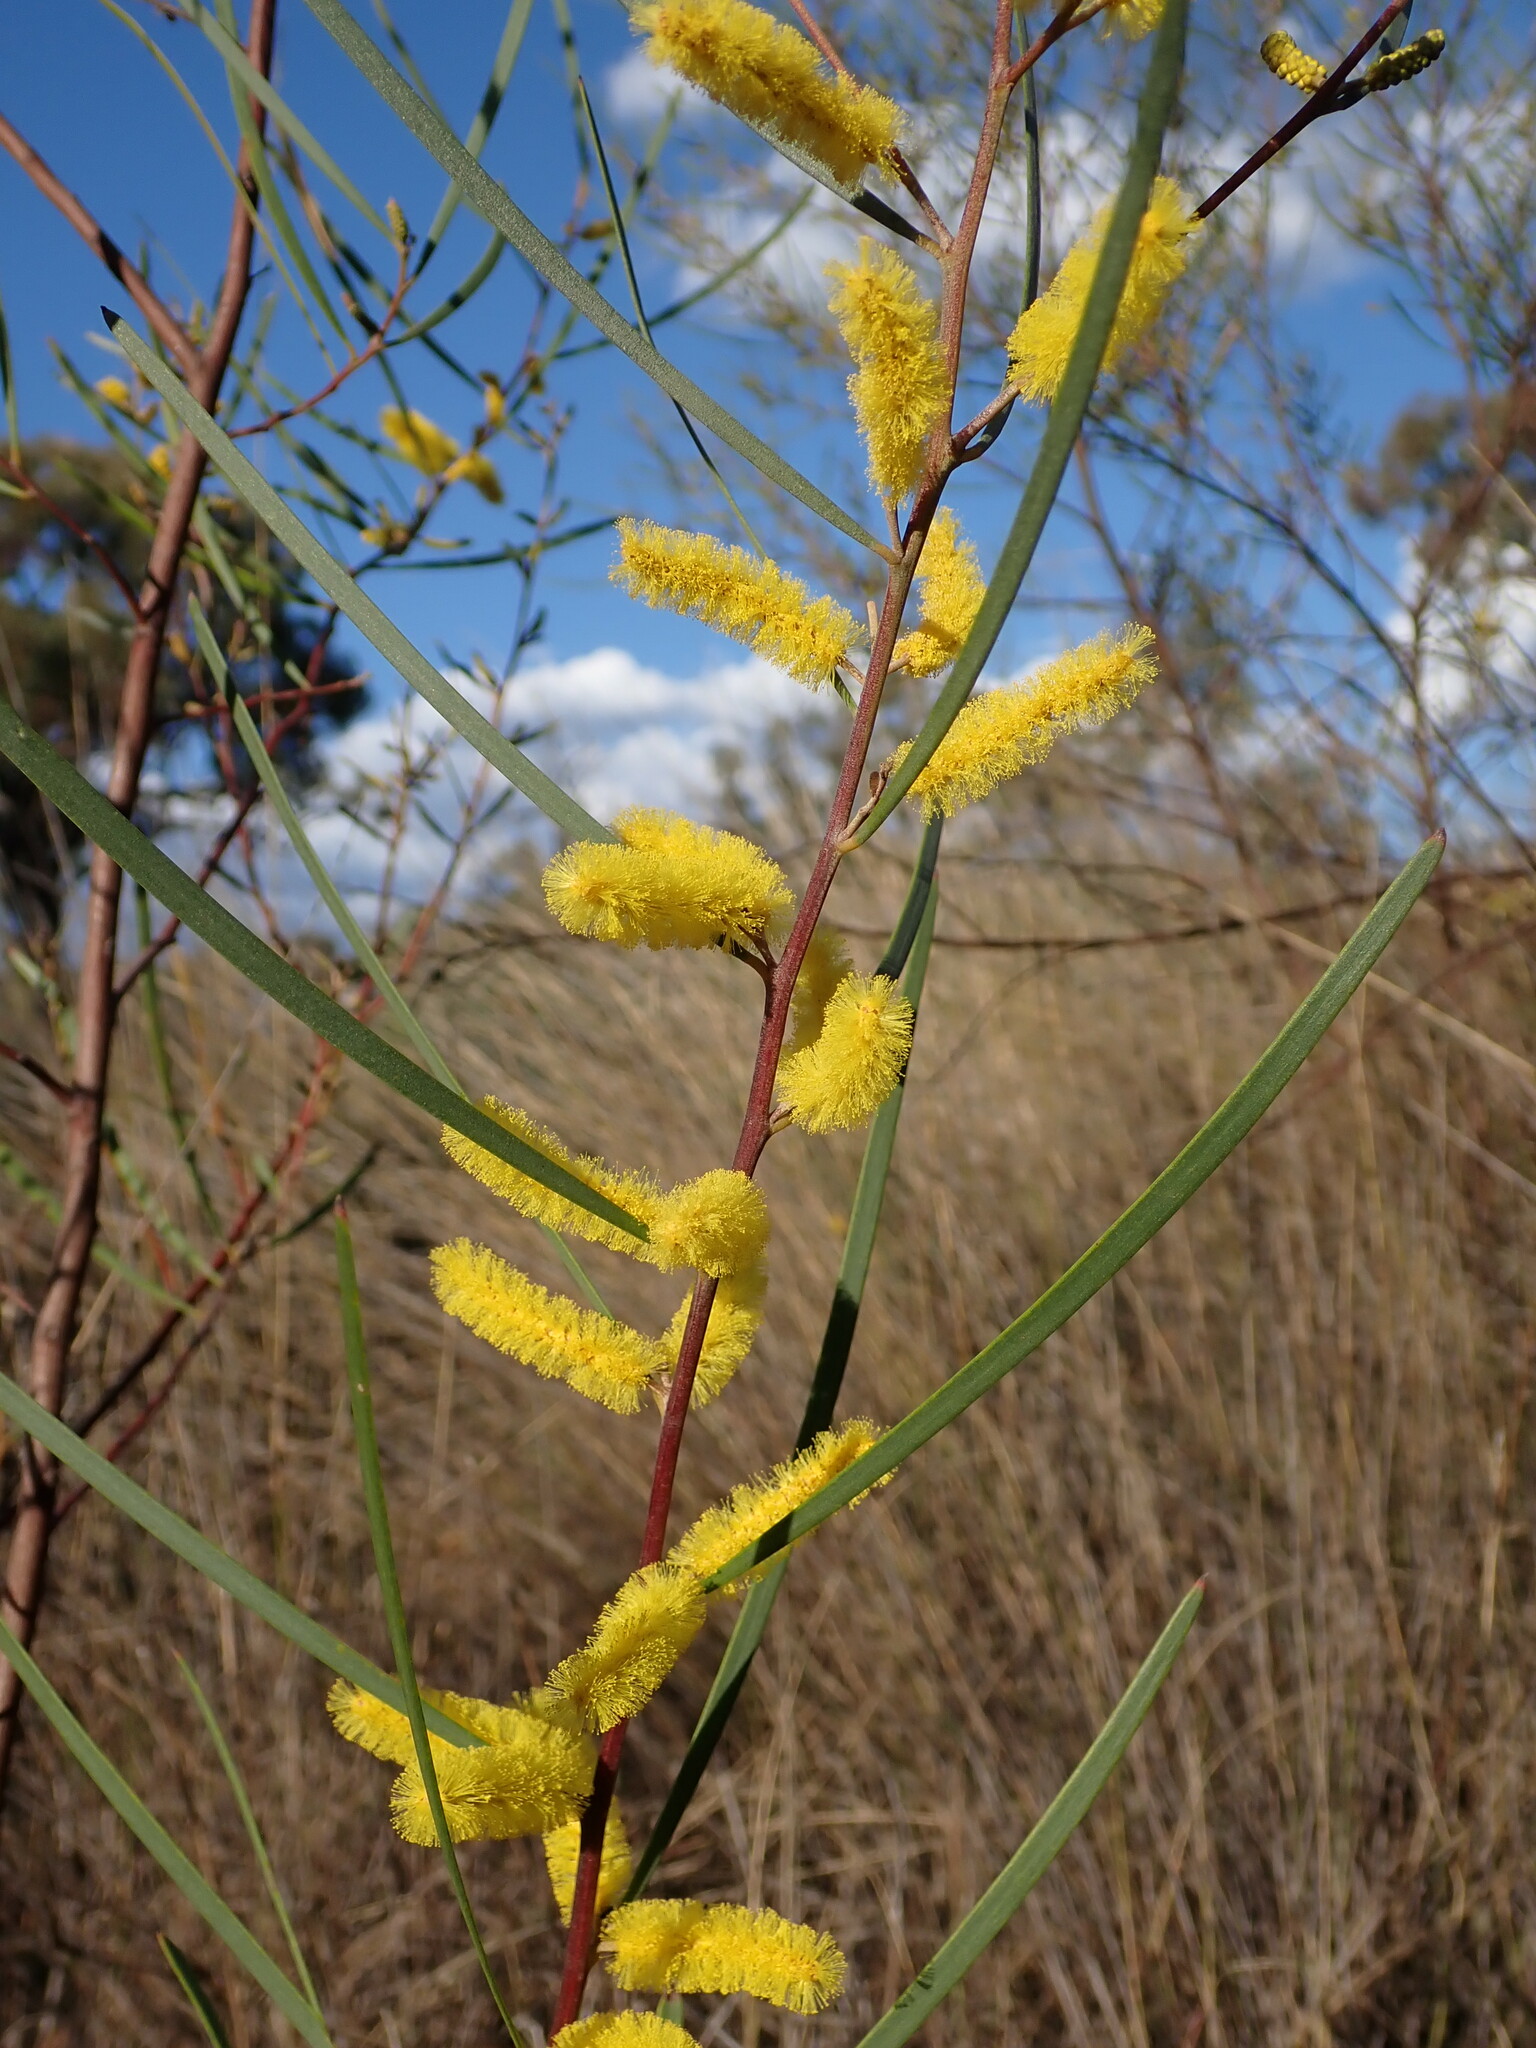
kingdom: Plantae
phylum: Tracheophyta
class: Magnoliopsida
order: Fabales
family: Fabaceae
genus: Acacia
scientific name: Acacia caroleae
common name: Narrow-leaf currawang
